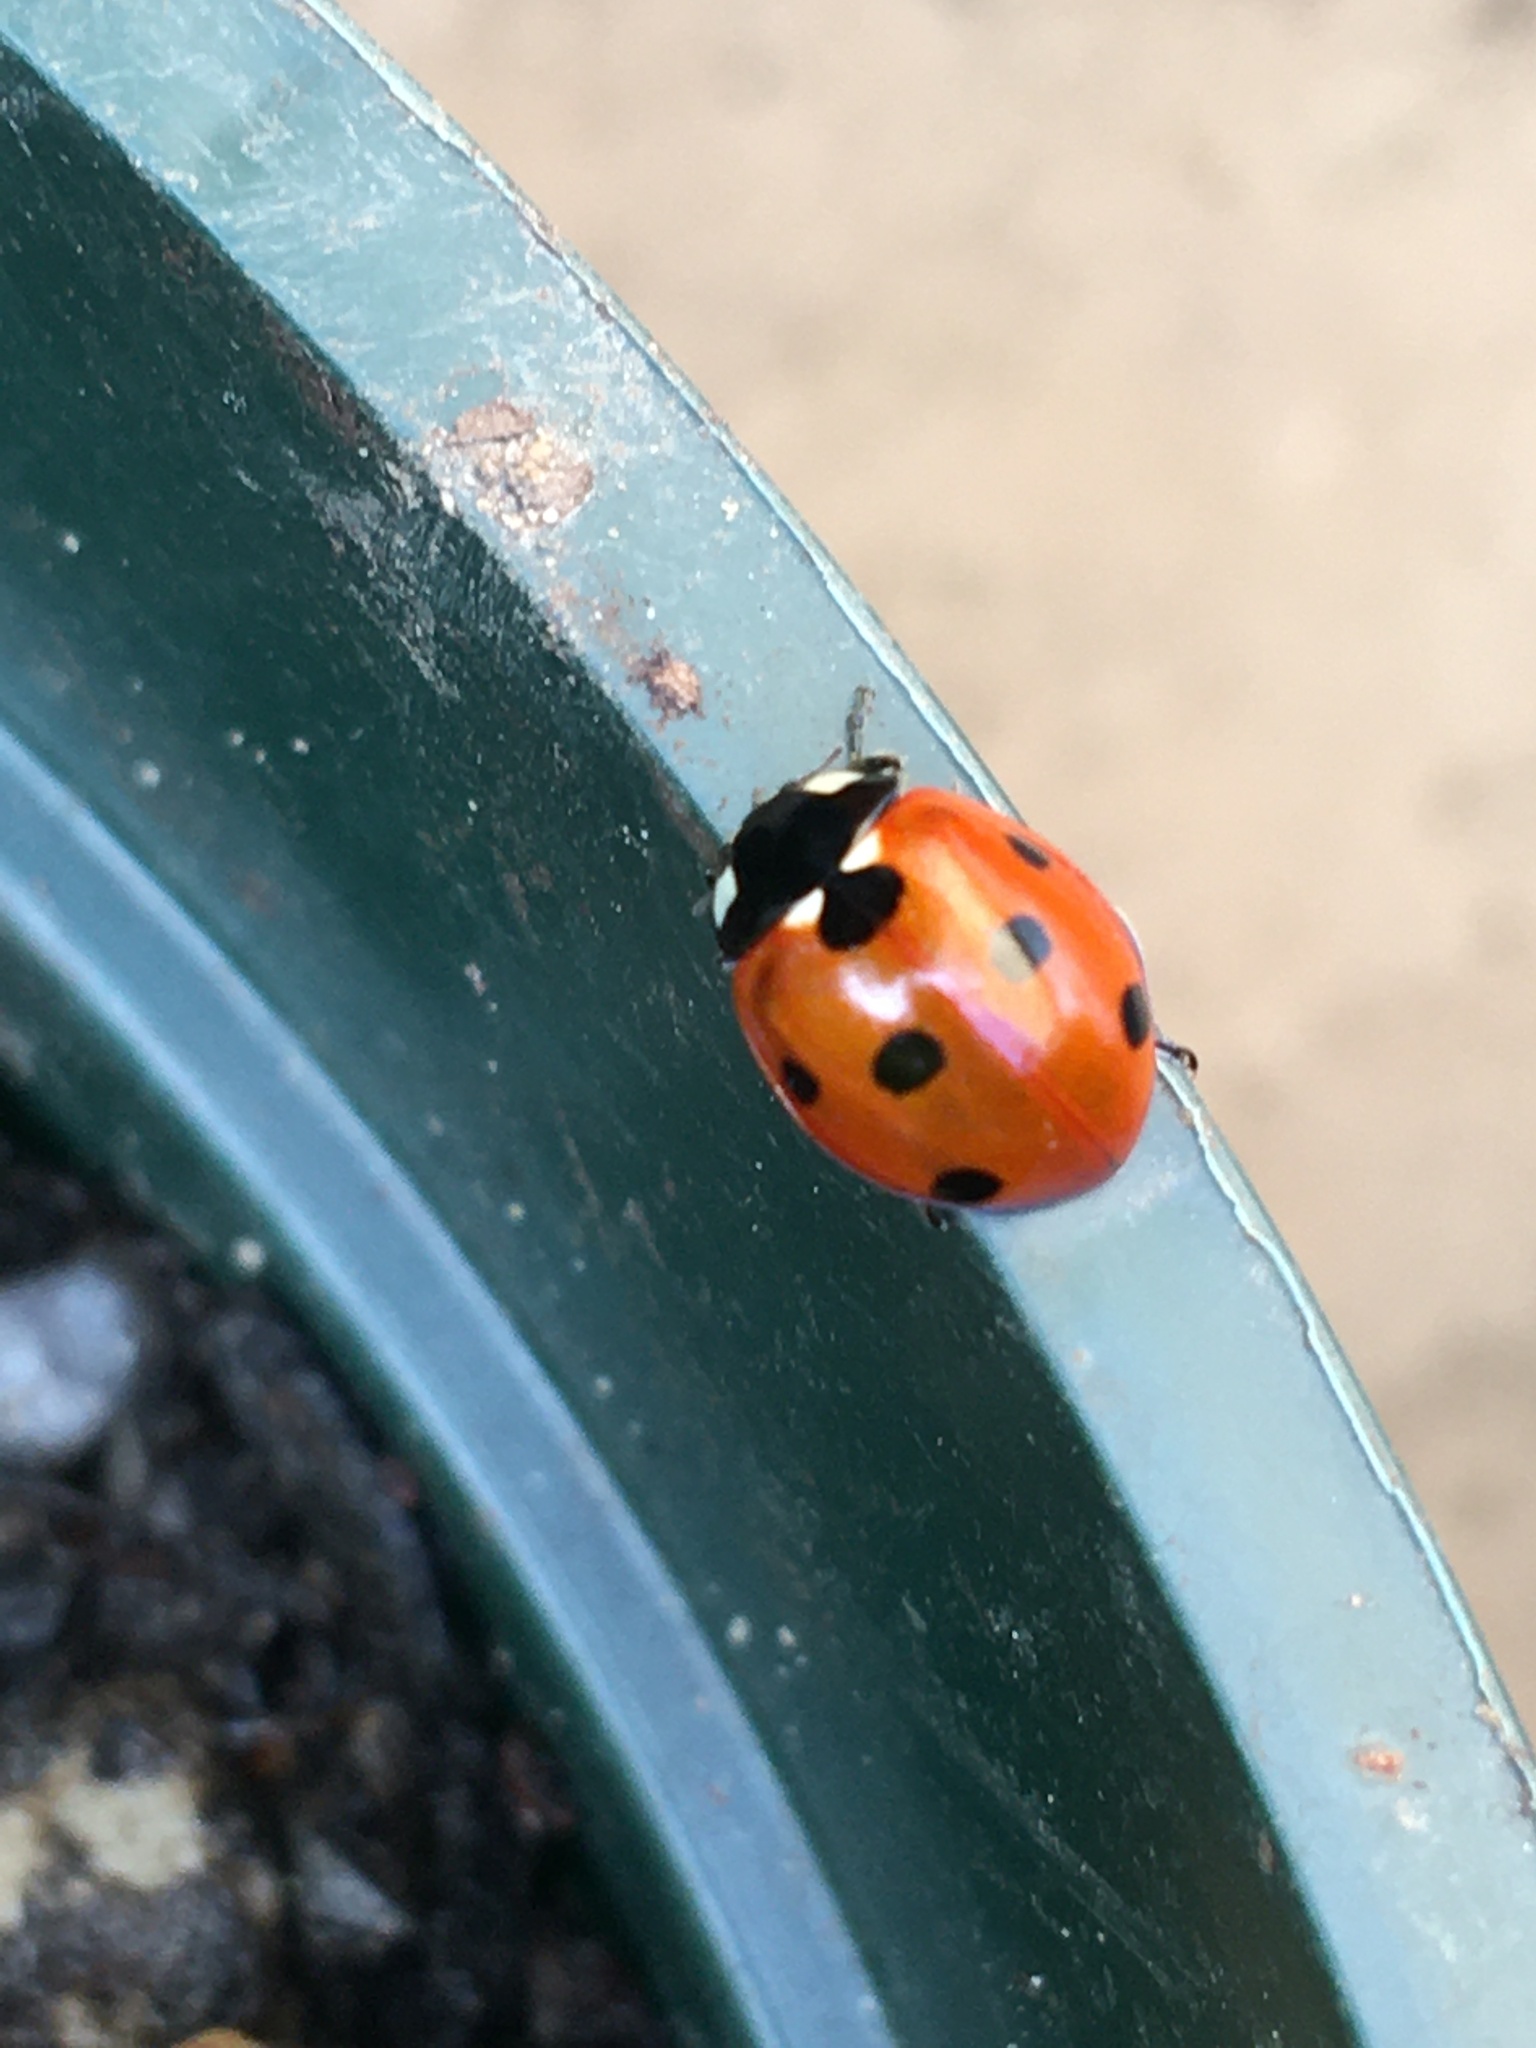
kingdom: Animalia
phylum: Arthropoda
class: Insecta
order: Coleoptera
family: Coccinellidae
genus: Coccinella
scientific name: Coccinella septempunctata
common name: Sevenspotted lady beetle
